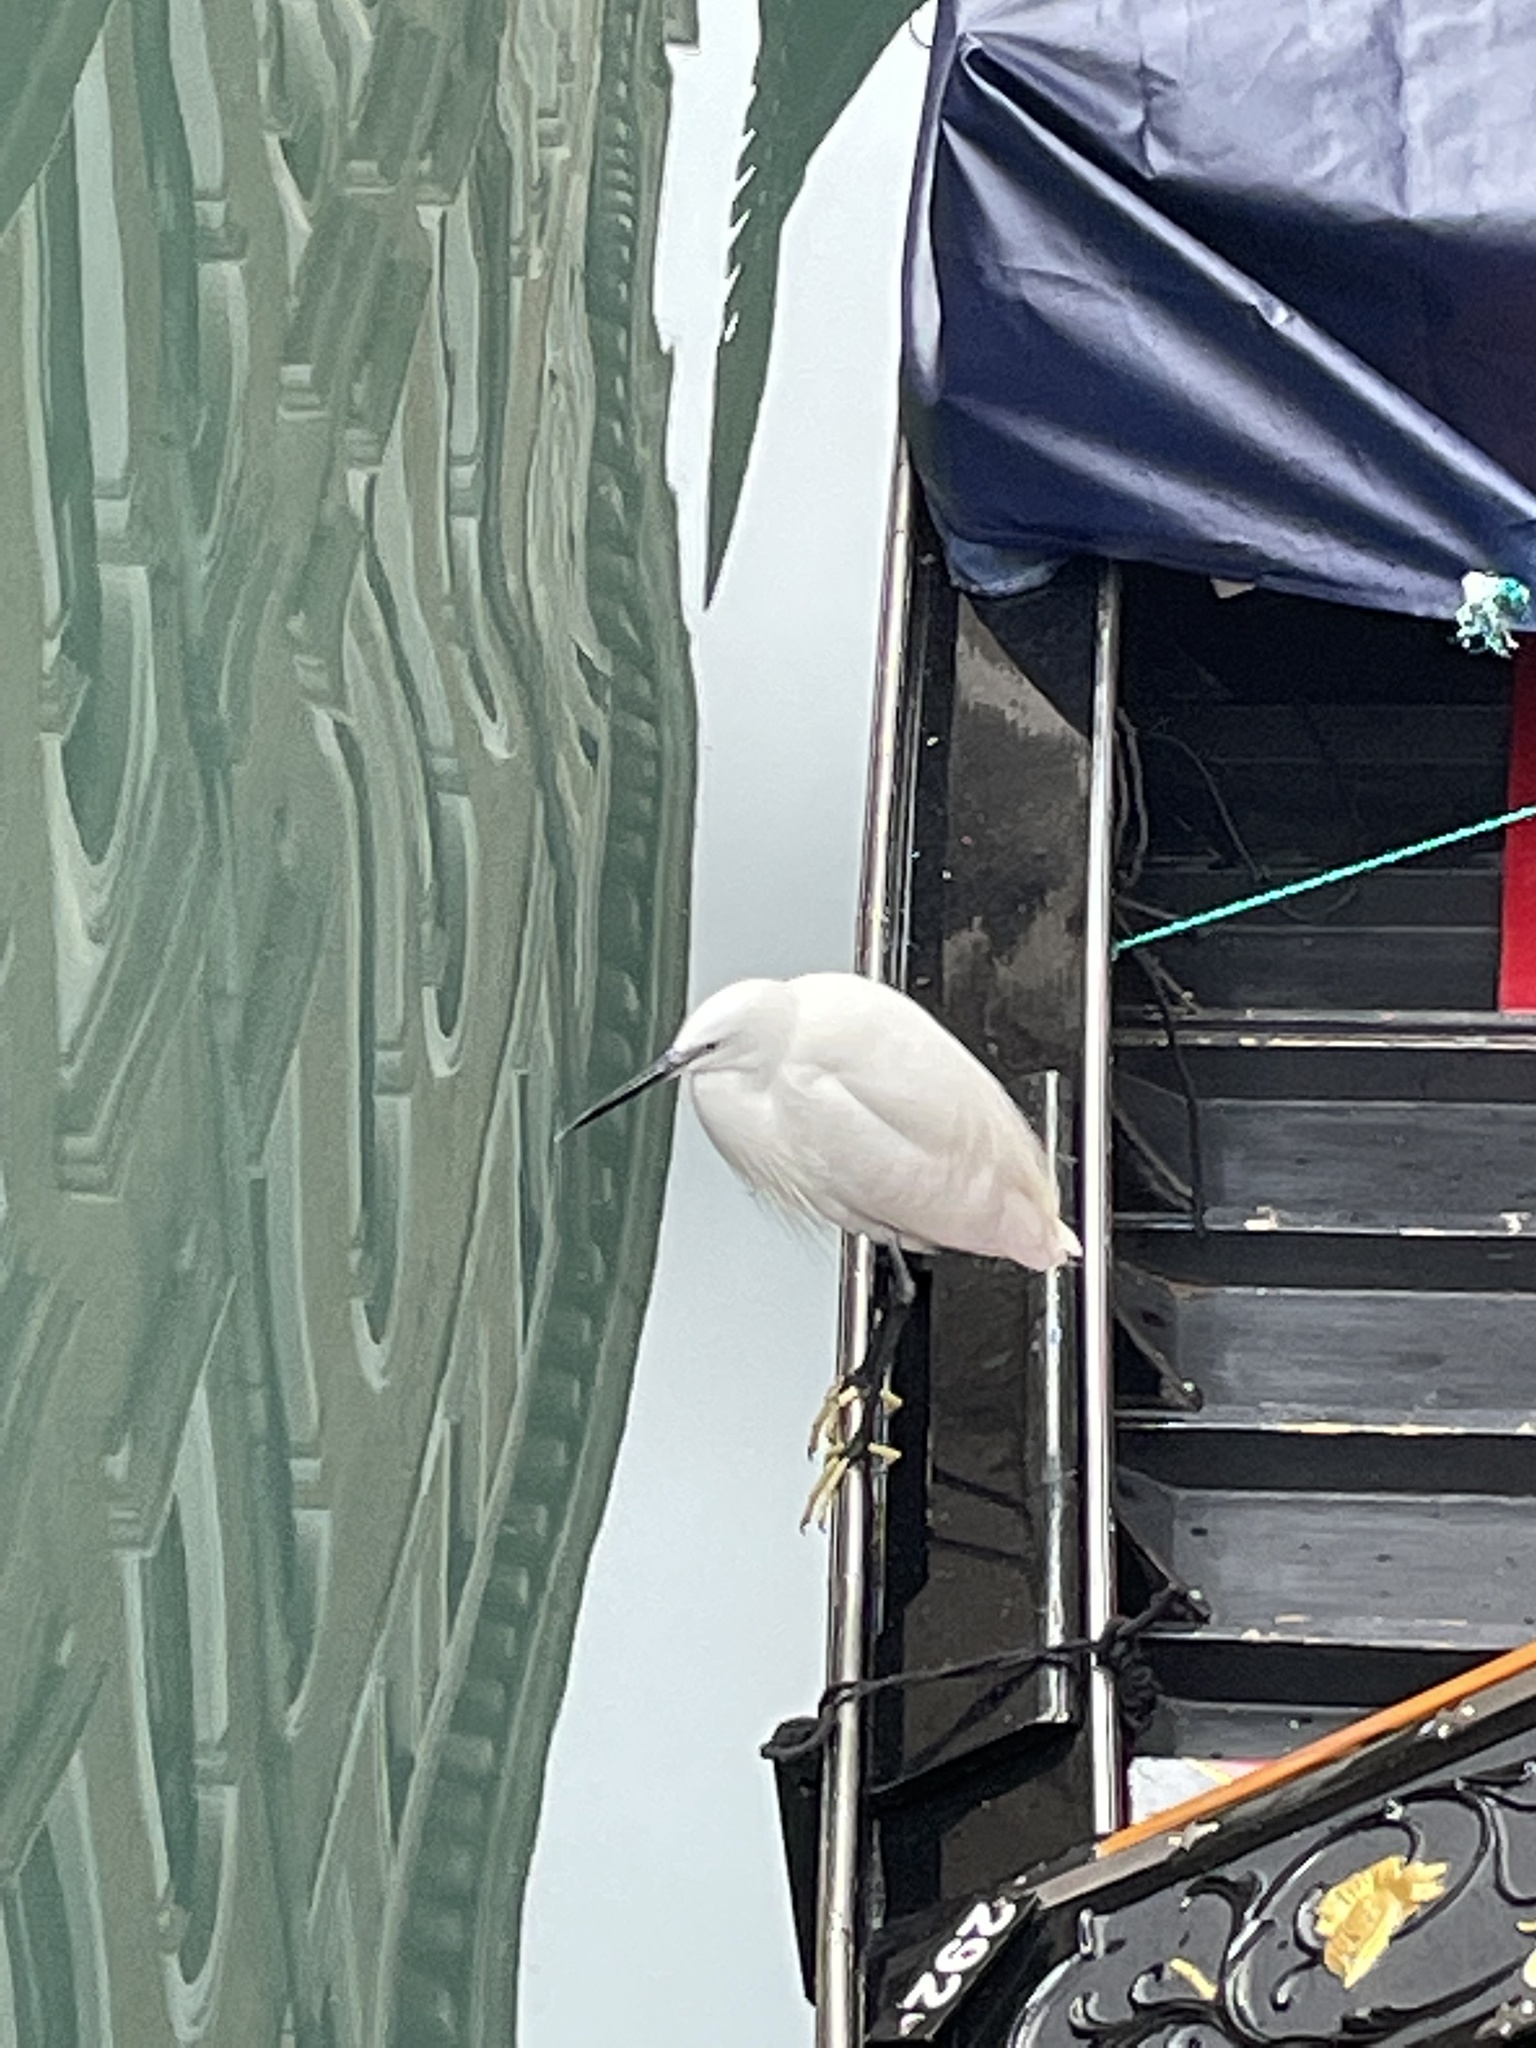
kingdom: Animalia
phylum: Chordata
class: Aves
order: Pelecaniformes
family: Ardeidae
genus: Egretta
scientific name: Egretta garzetta
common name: Little egret
